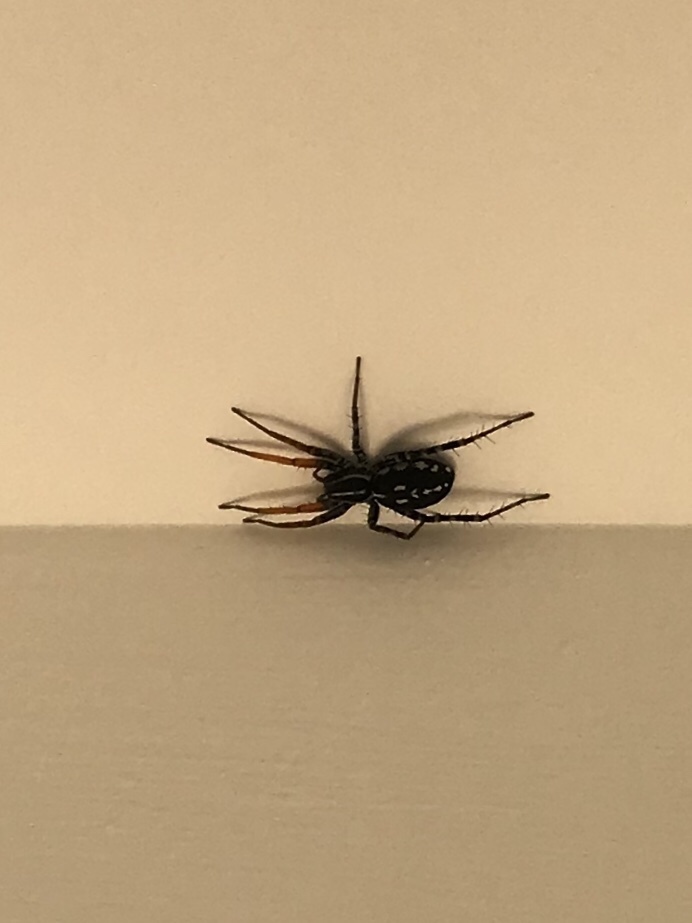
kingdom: Animalia
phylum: Arthropoda
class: Arachnida
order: Araneae
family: Corinnidae
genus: Nyssus
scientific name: Nyssus coloripes
